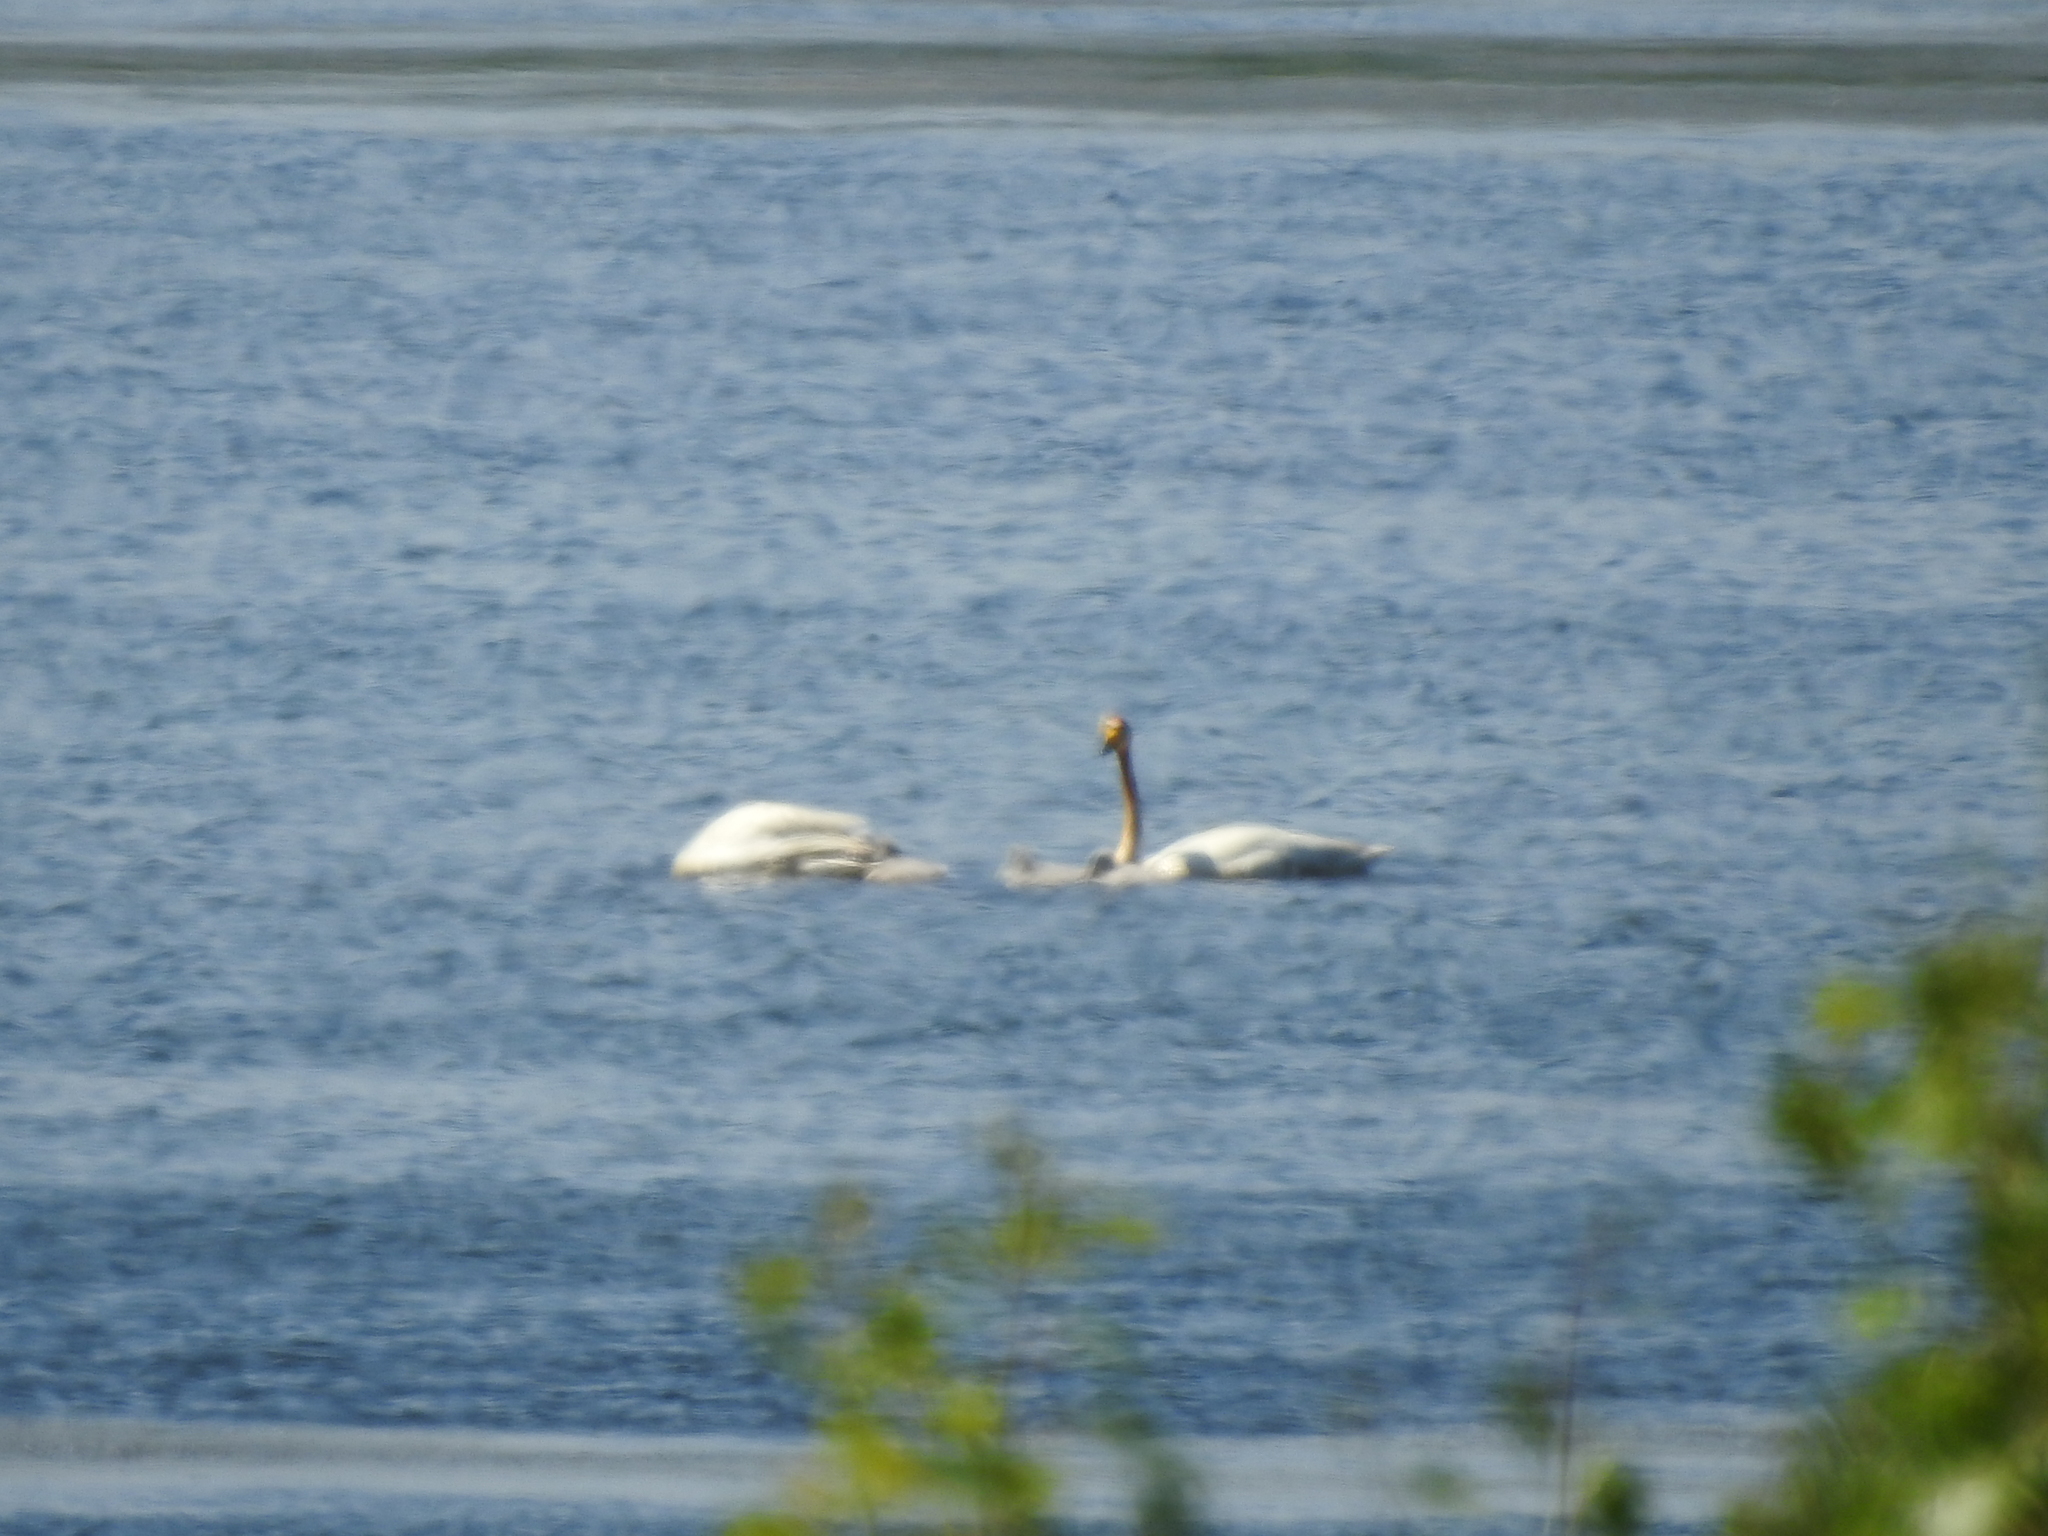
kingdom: Animalia
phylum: Chordata
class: Aves
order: Anseriformes
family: Anatidae
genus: Cygnus
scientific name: Cygnus cygnus
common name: Whooper swan
